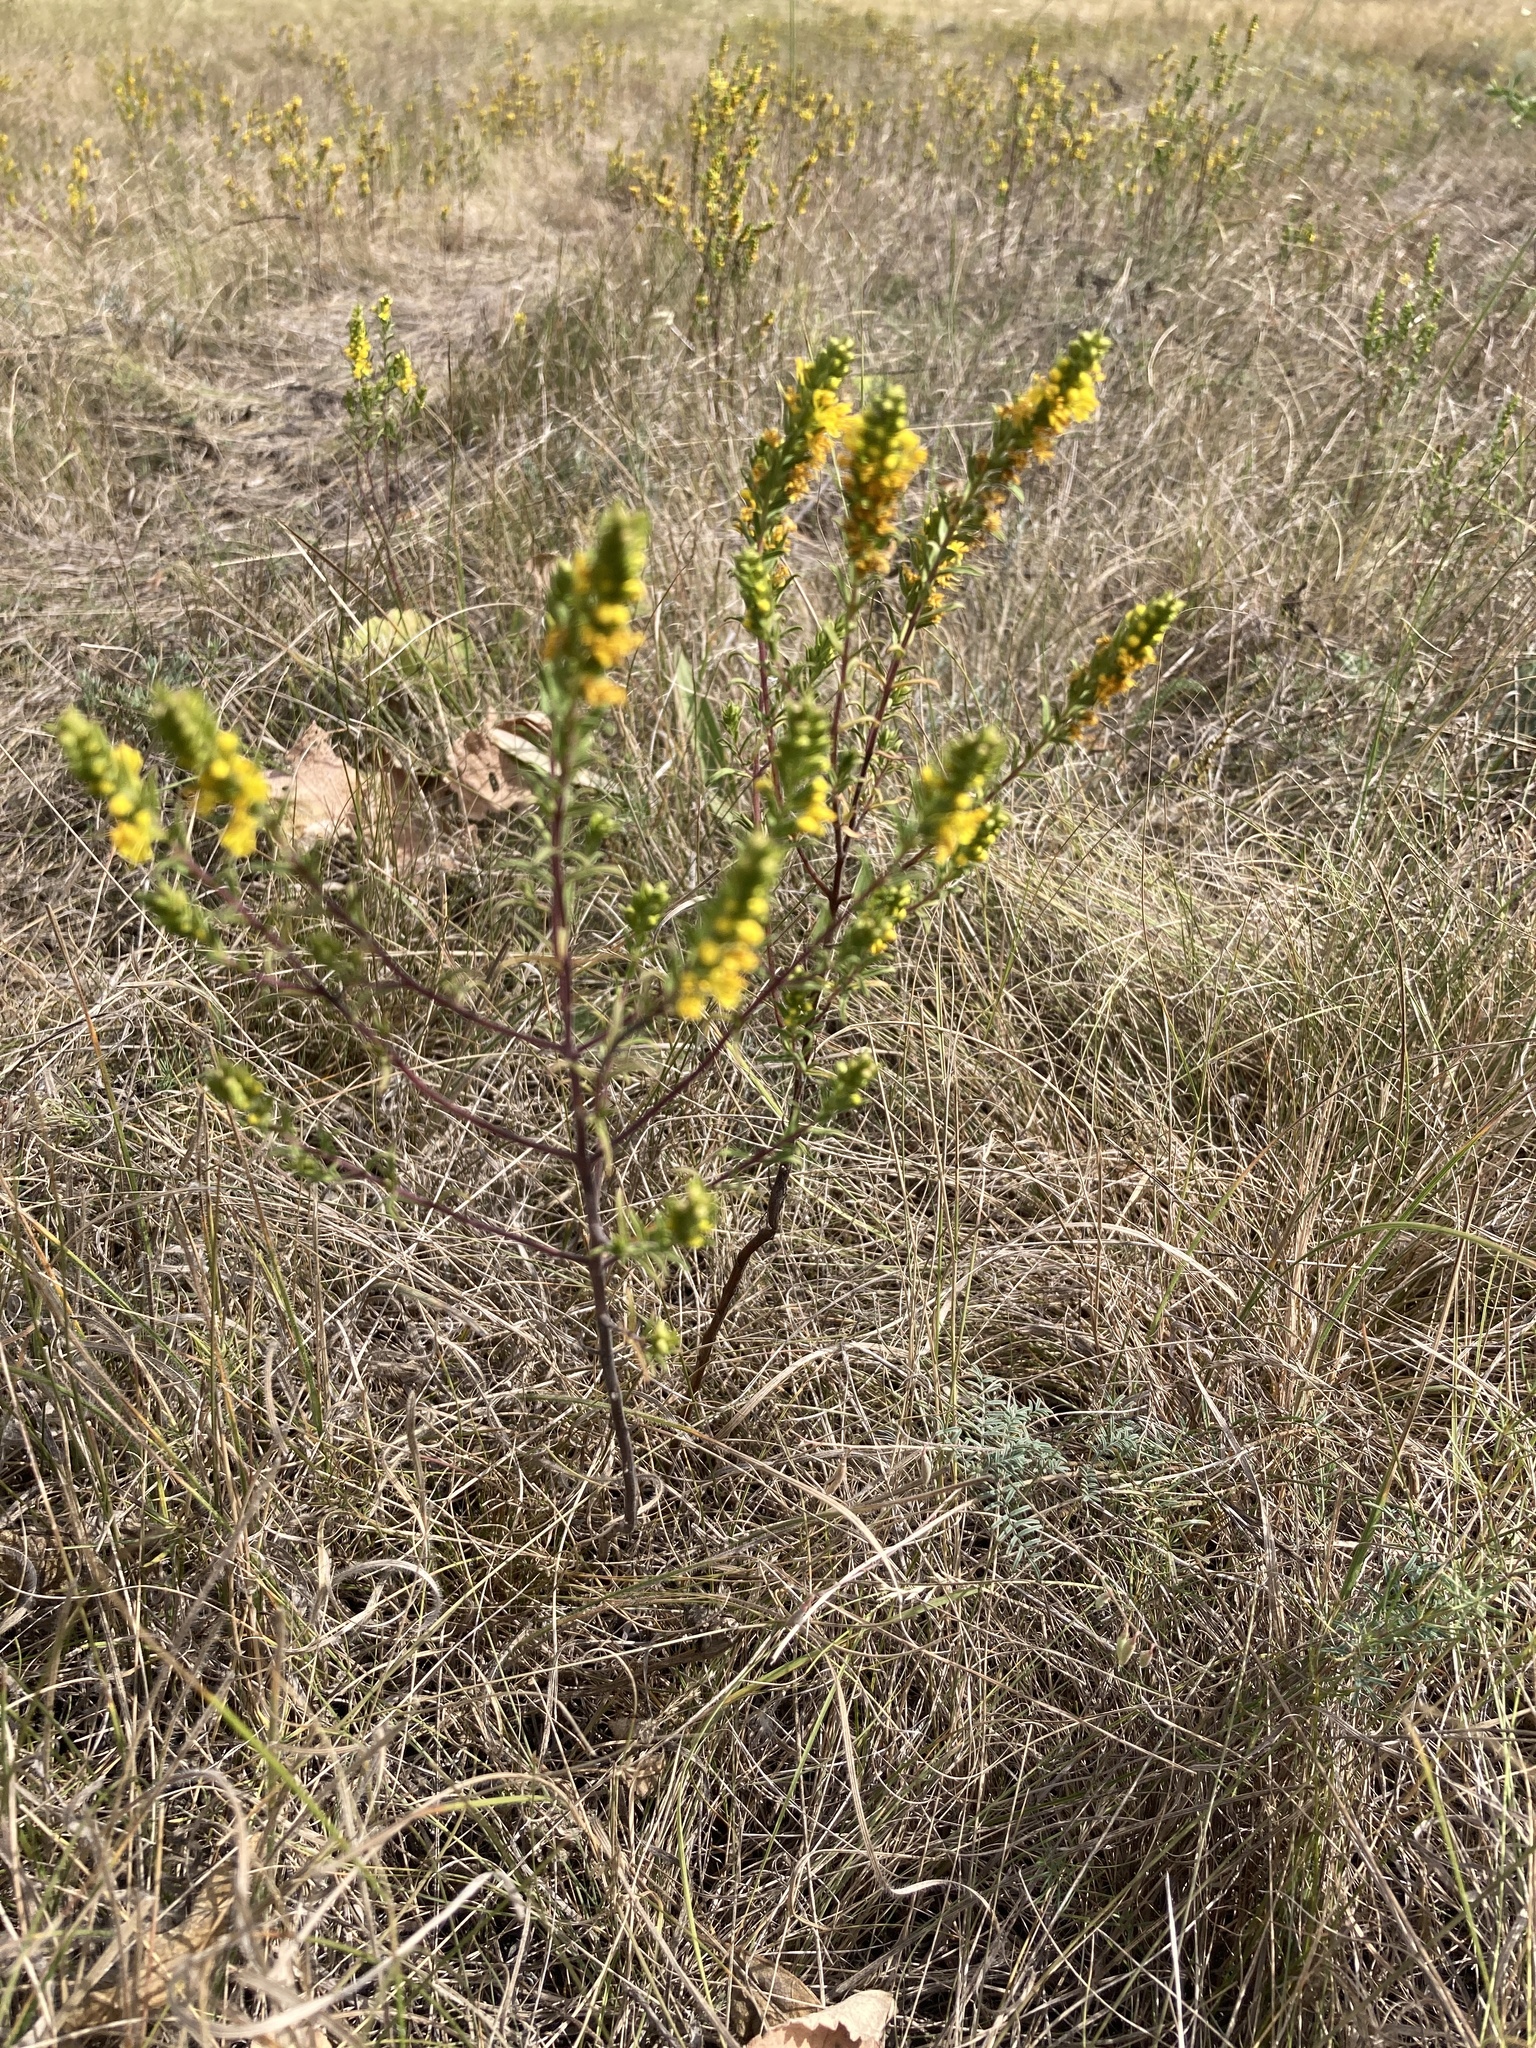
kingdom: Plantae
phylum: Tracheophyta
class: Magnoliopsida
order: Lamiales
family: Orobanchaceae
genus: Odontites
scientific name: Odontites luteus
